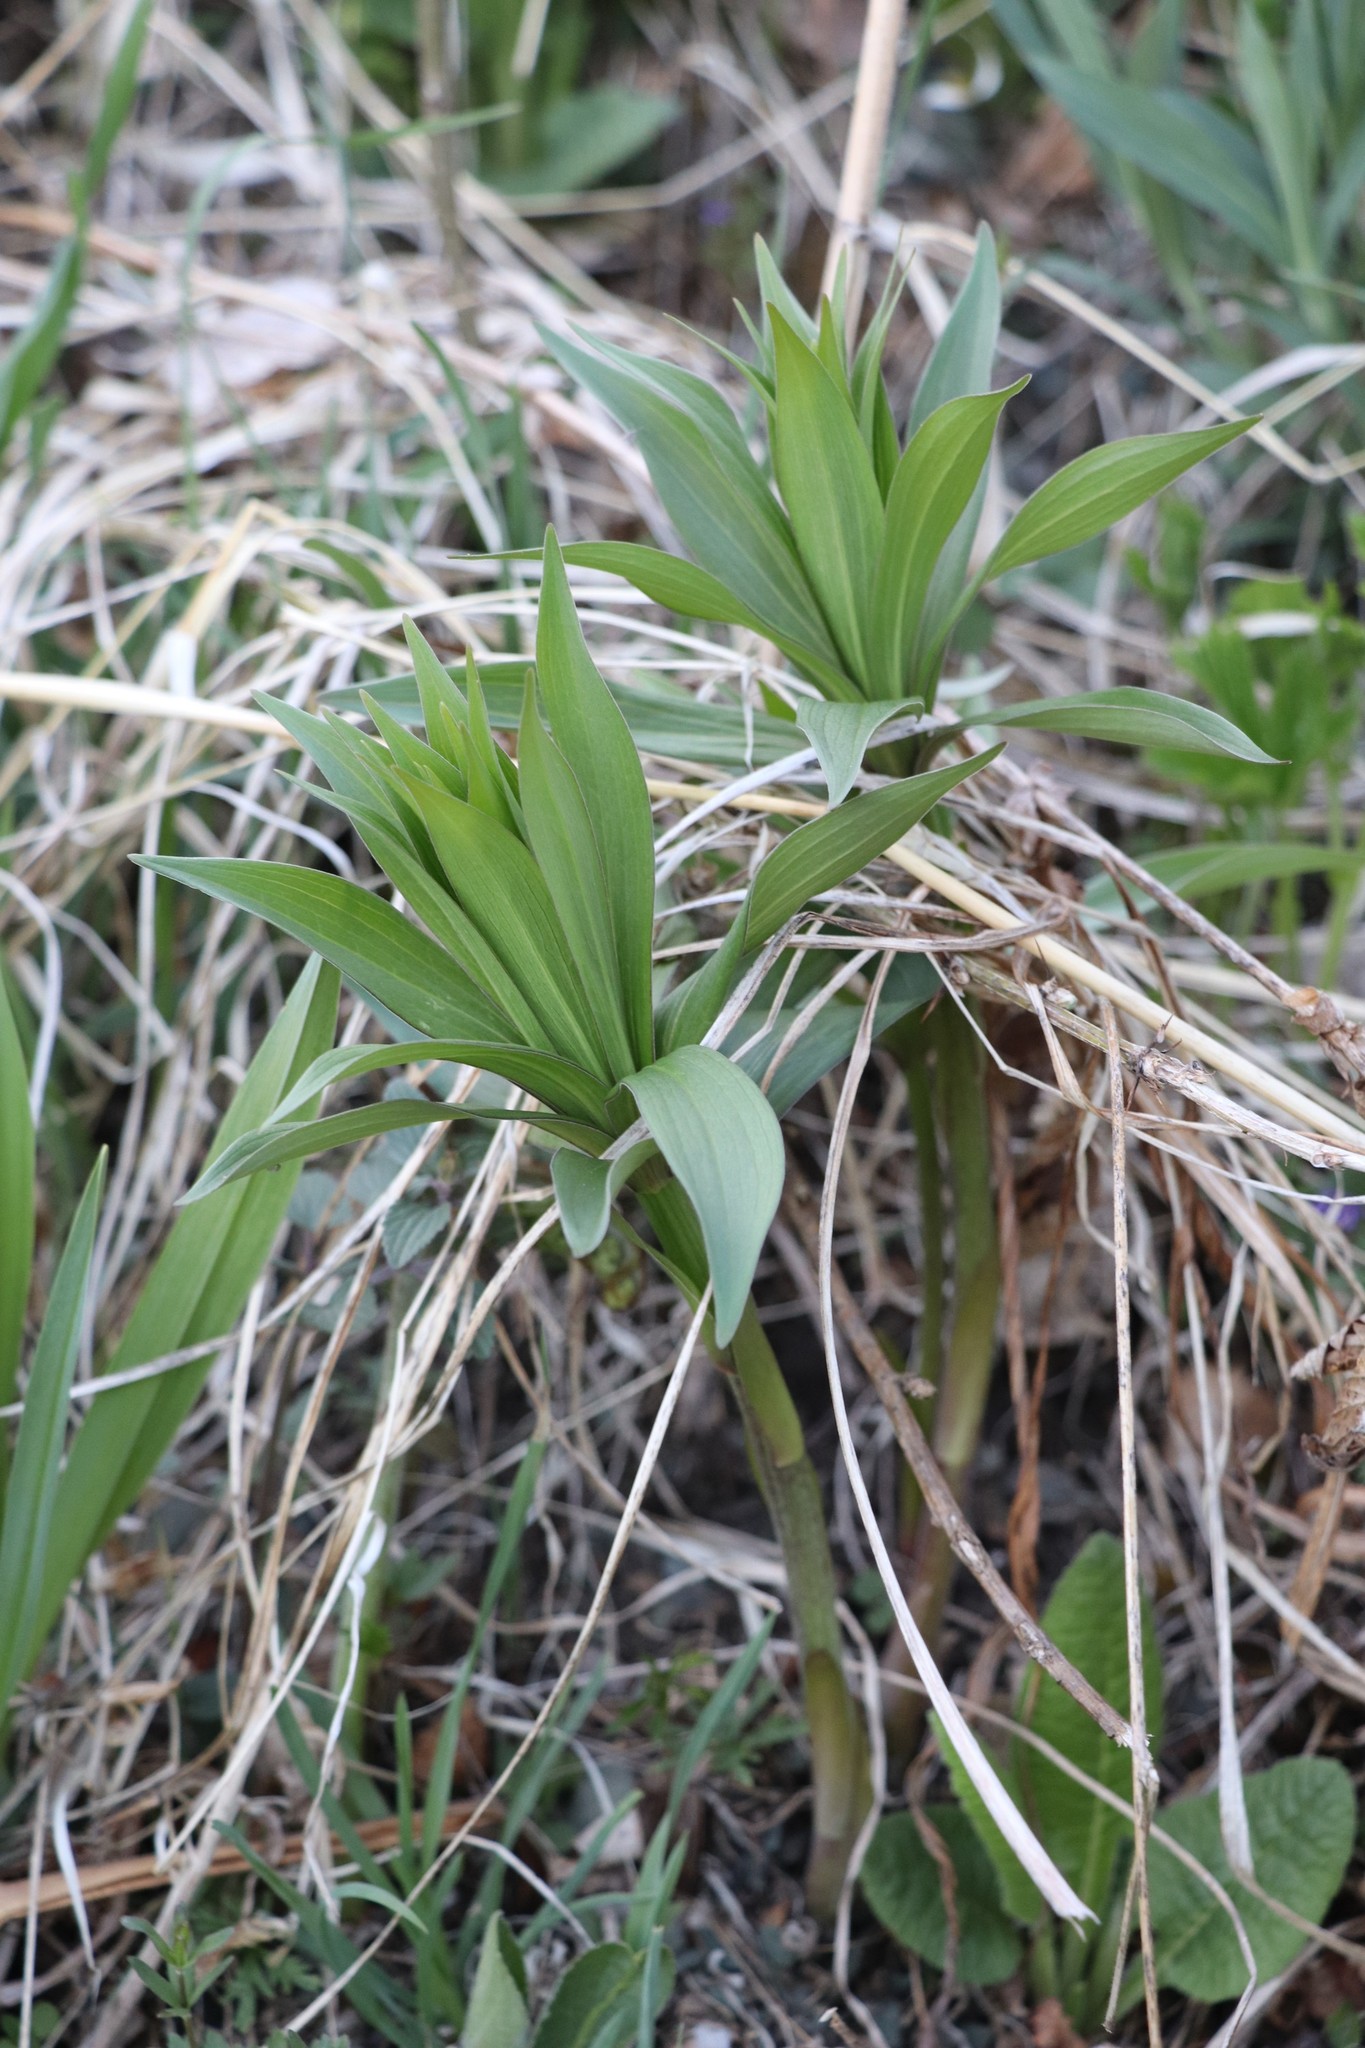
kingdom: Plantae
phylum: Tracheophyta
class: Liliopsida
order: Liliales
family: Liliaceae
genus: Lilium
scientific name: Lilium martagon
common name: Martagon lily
